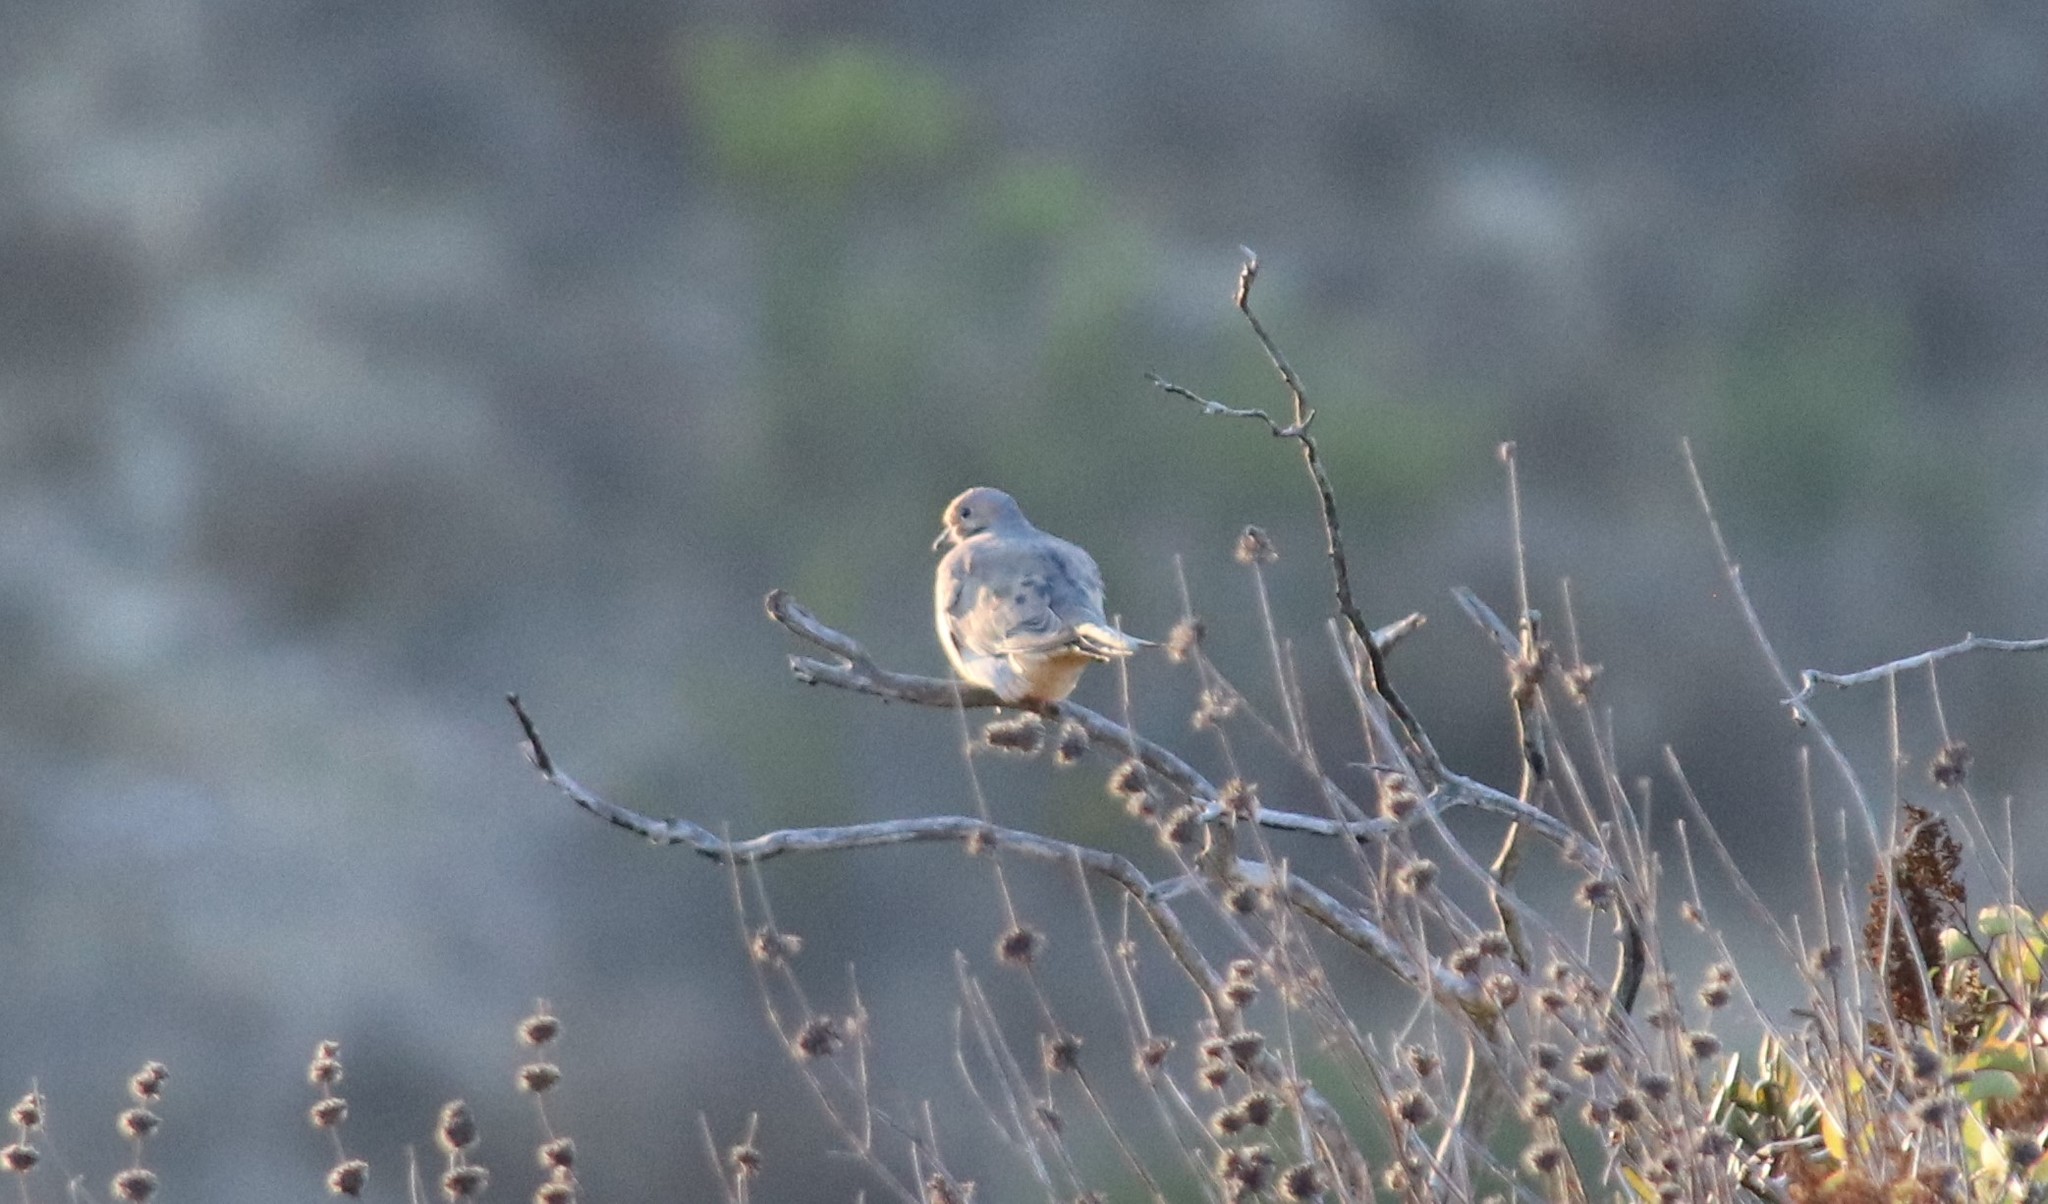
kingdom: Animalia
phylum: Chordata
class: Aves
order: Columbiformes
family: Columbidae
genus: Zenaida
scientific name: Zenaida macroura
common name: Mourning dove
